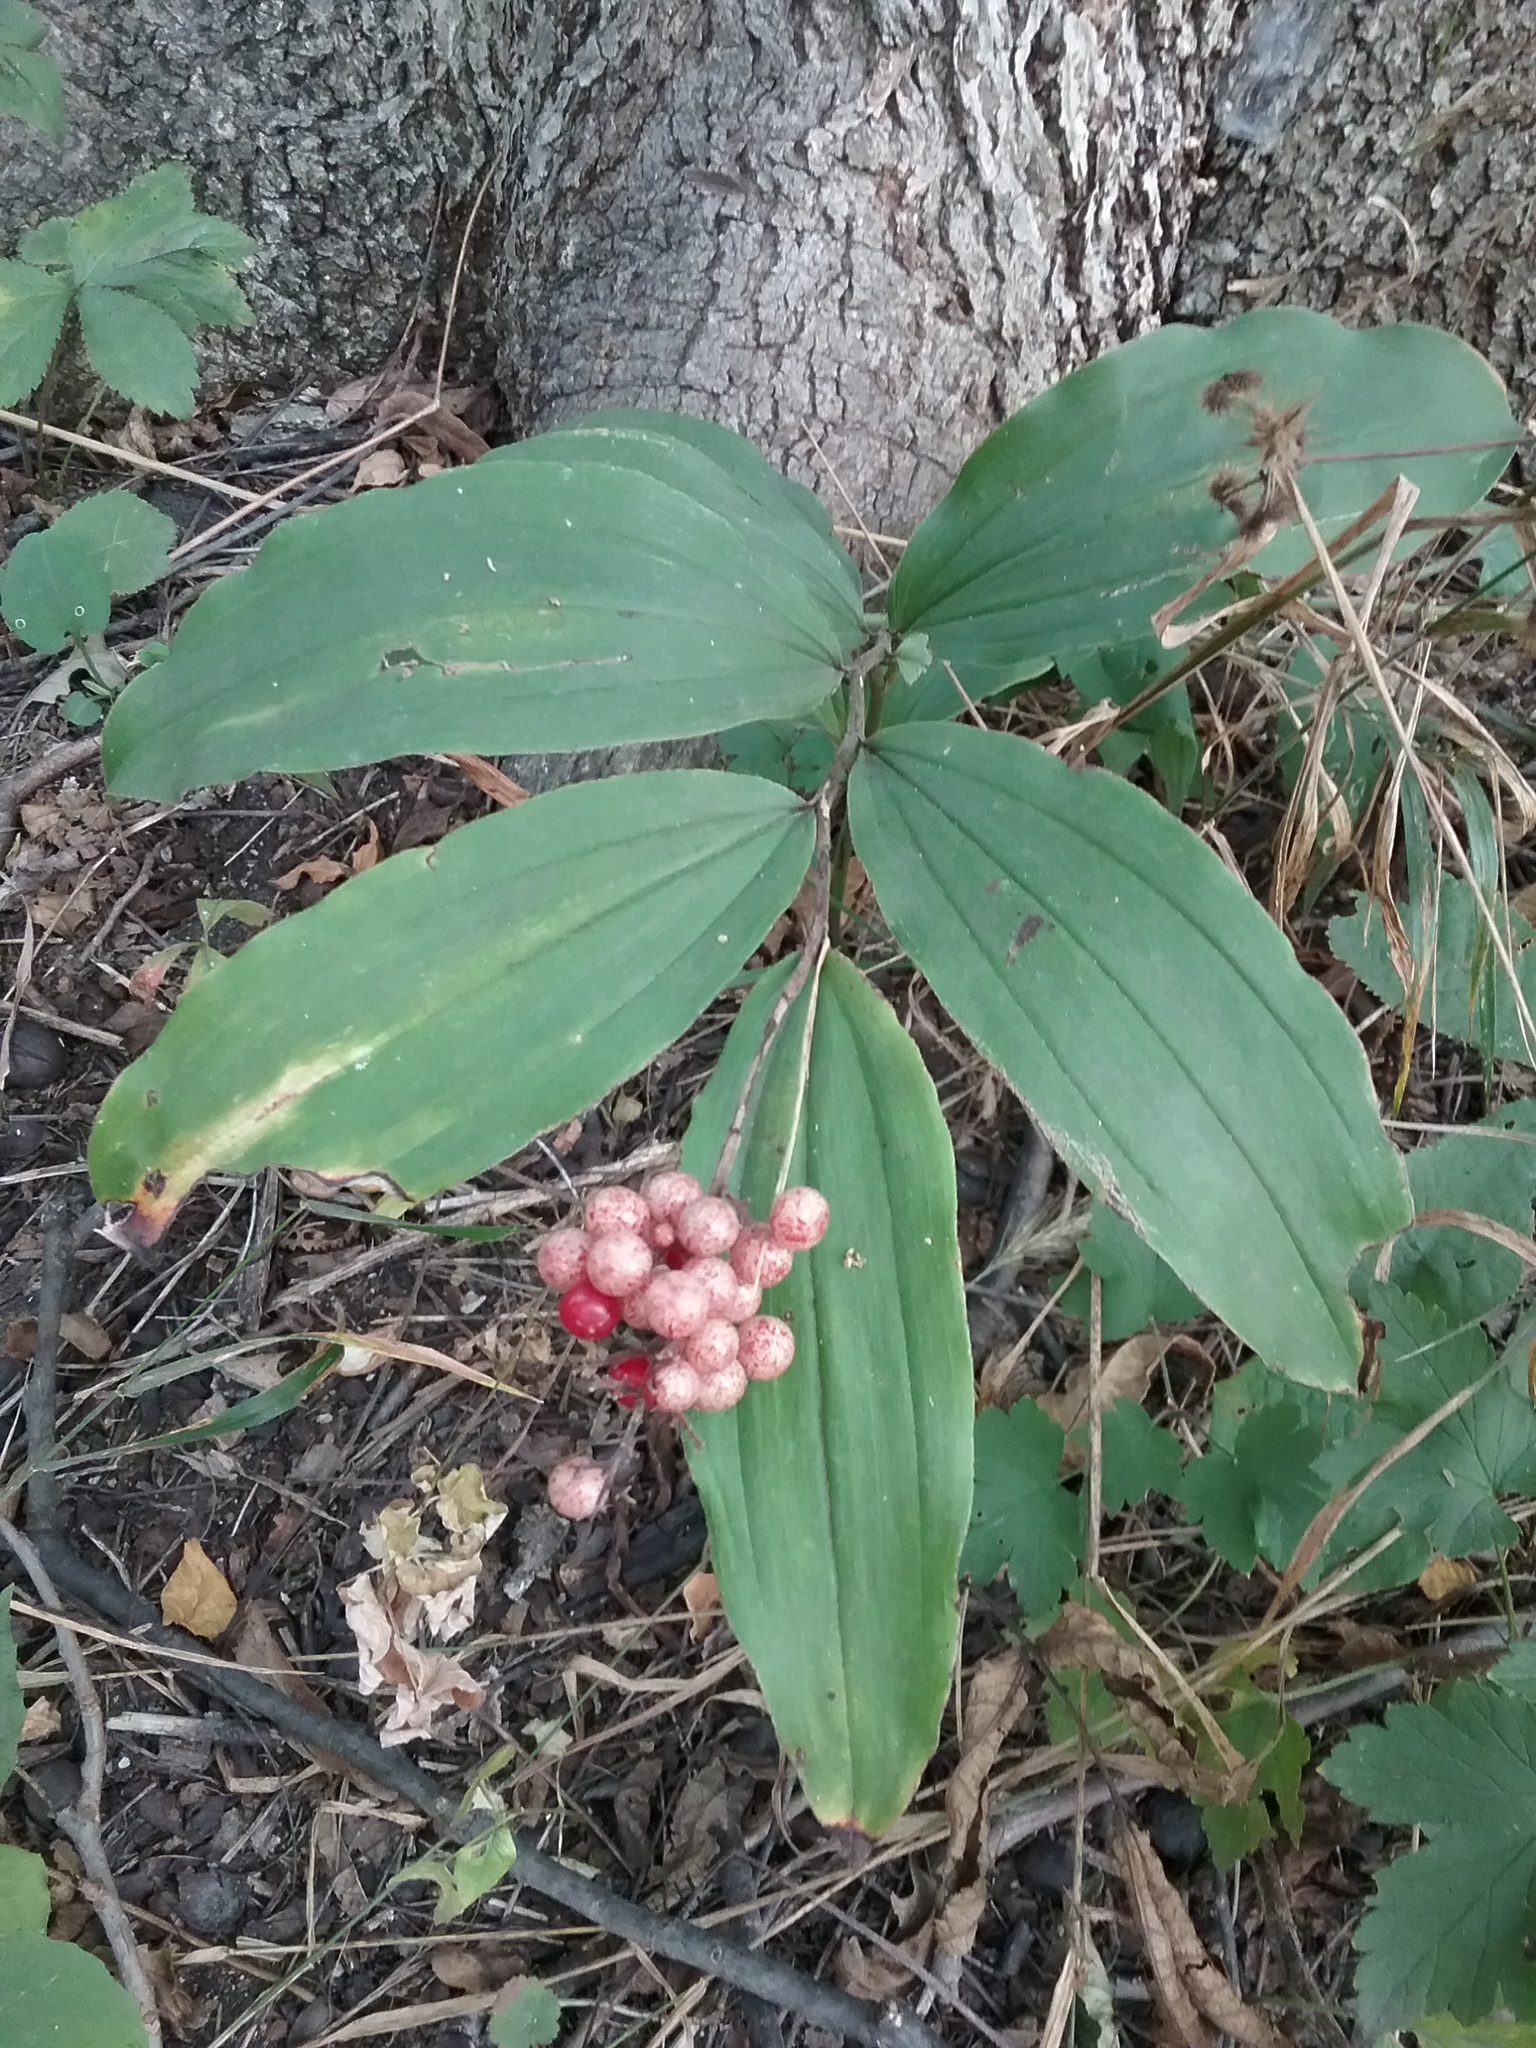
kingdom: Plantae
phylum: Tracheophyta
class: Liliopsida
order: Asparagales
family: Asparagaceae
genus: Maianthemum
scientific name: Maianthemum racemosum
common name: False spikenard
